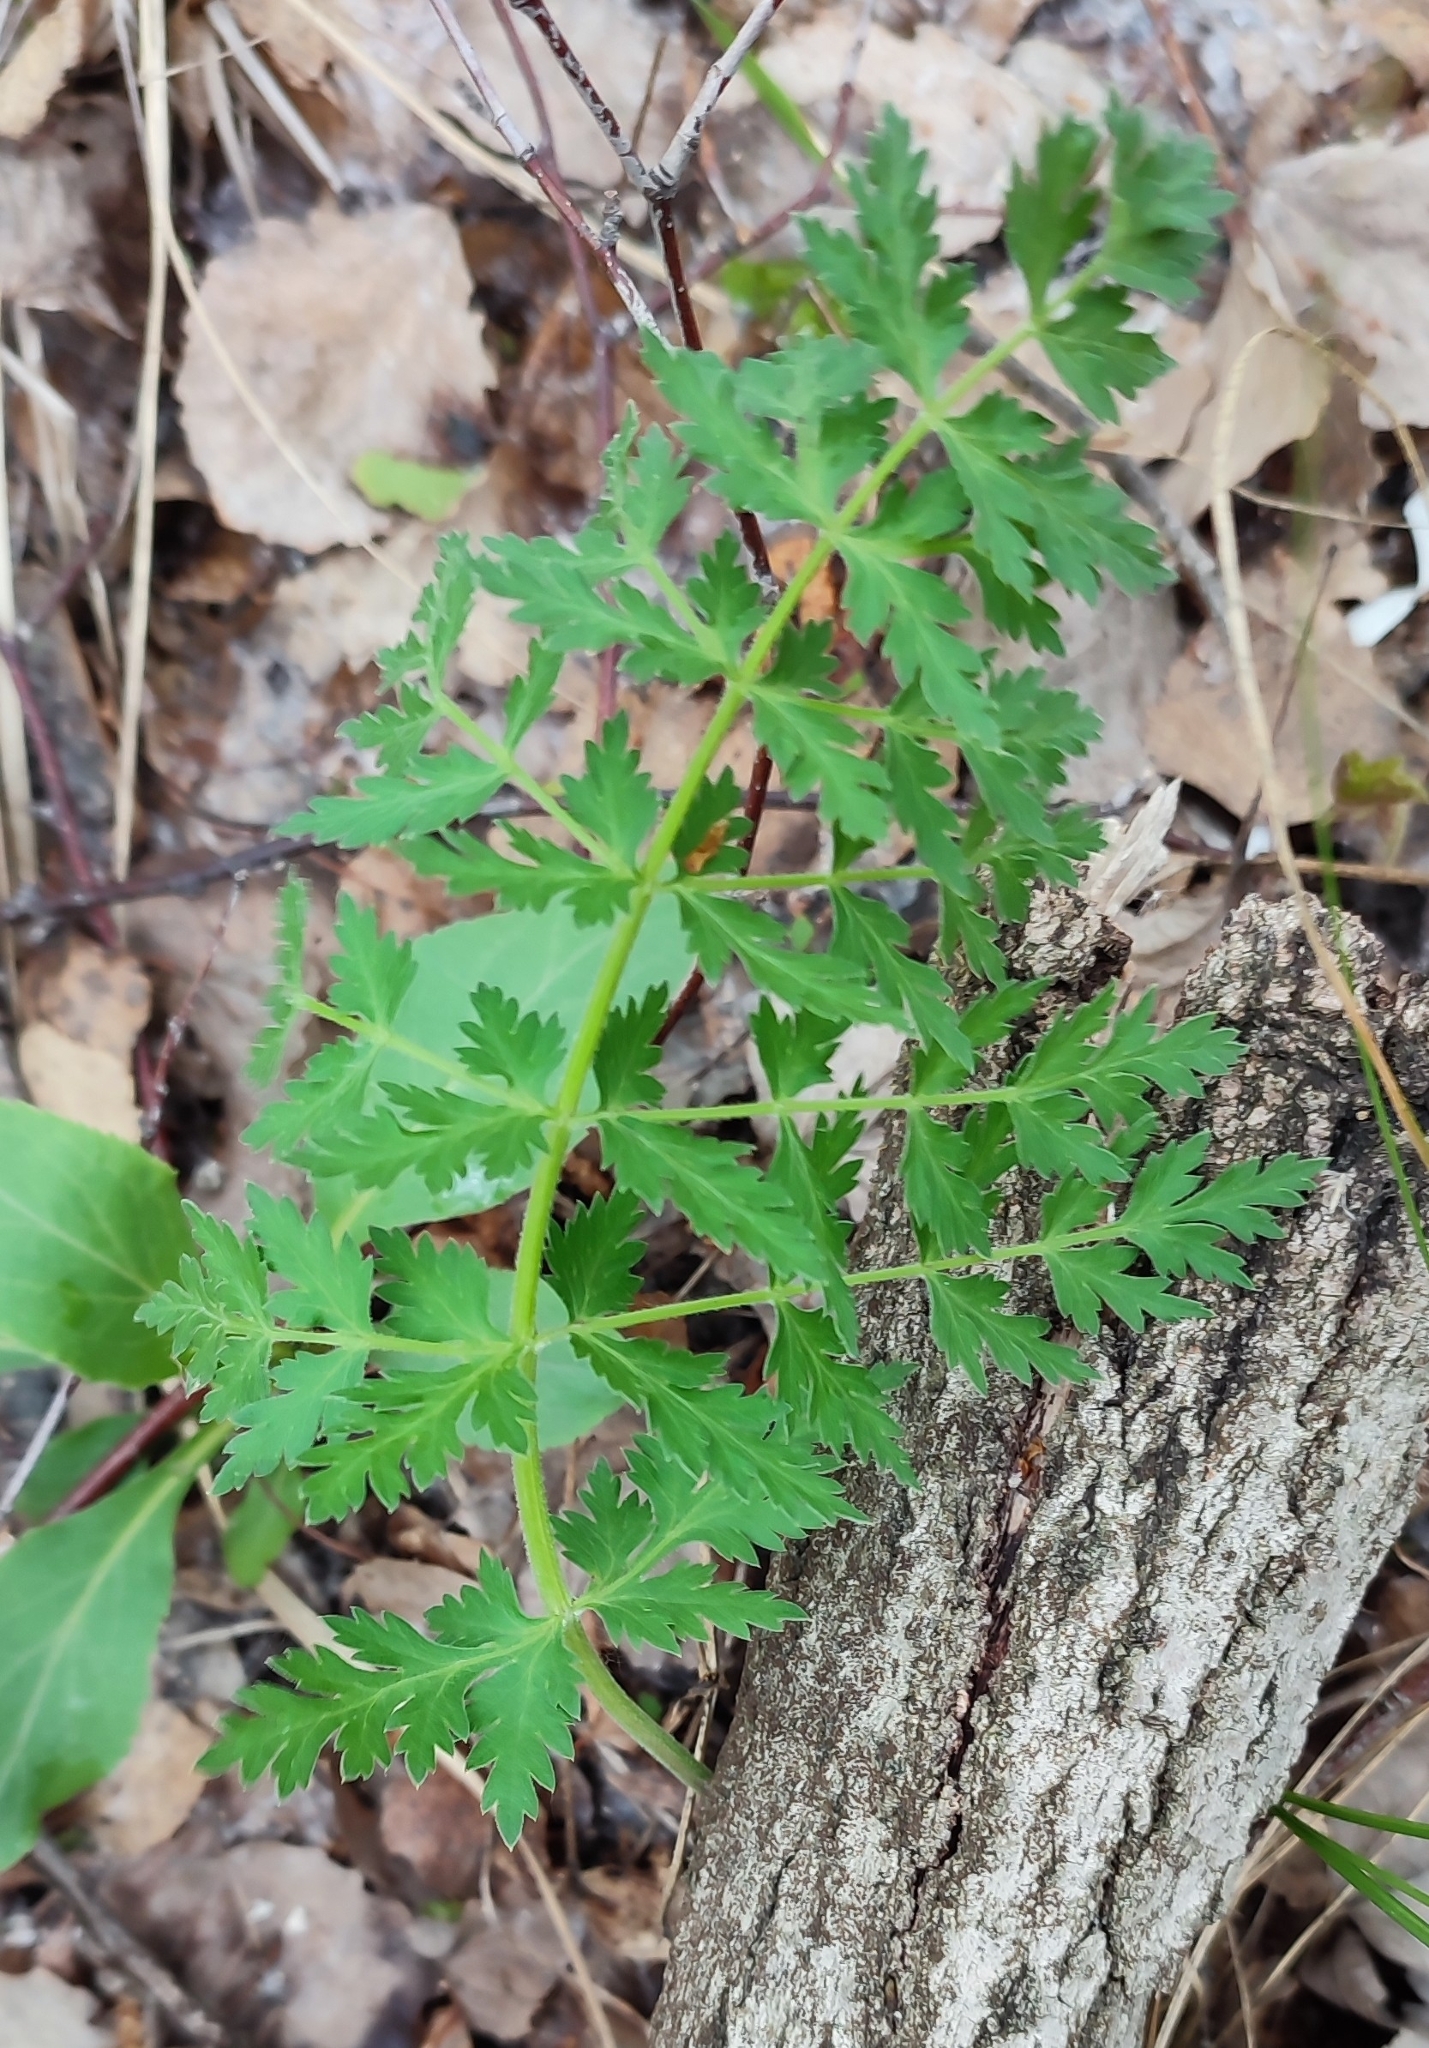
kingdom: Plantae
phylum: Tracheophyta
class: Magnoliopsida
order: Apiales
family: Apiaceae
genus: Seseli
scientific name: Seseli libanotis
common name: Mooncarrot
